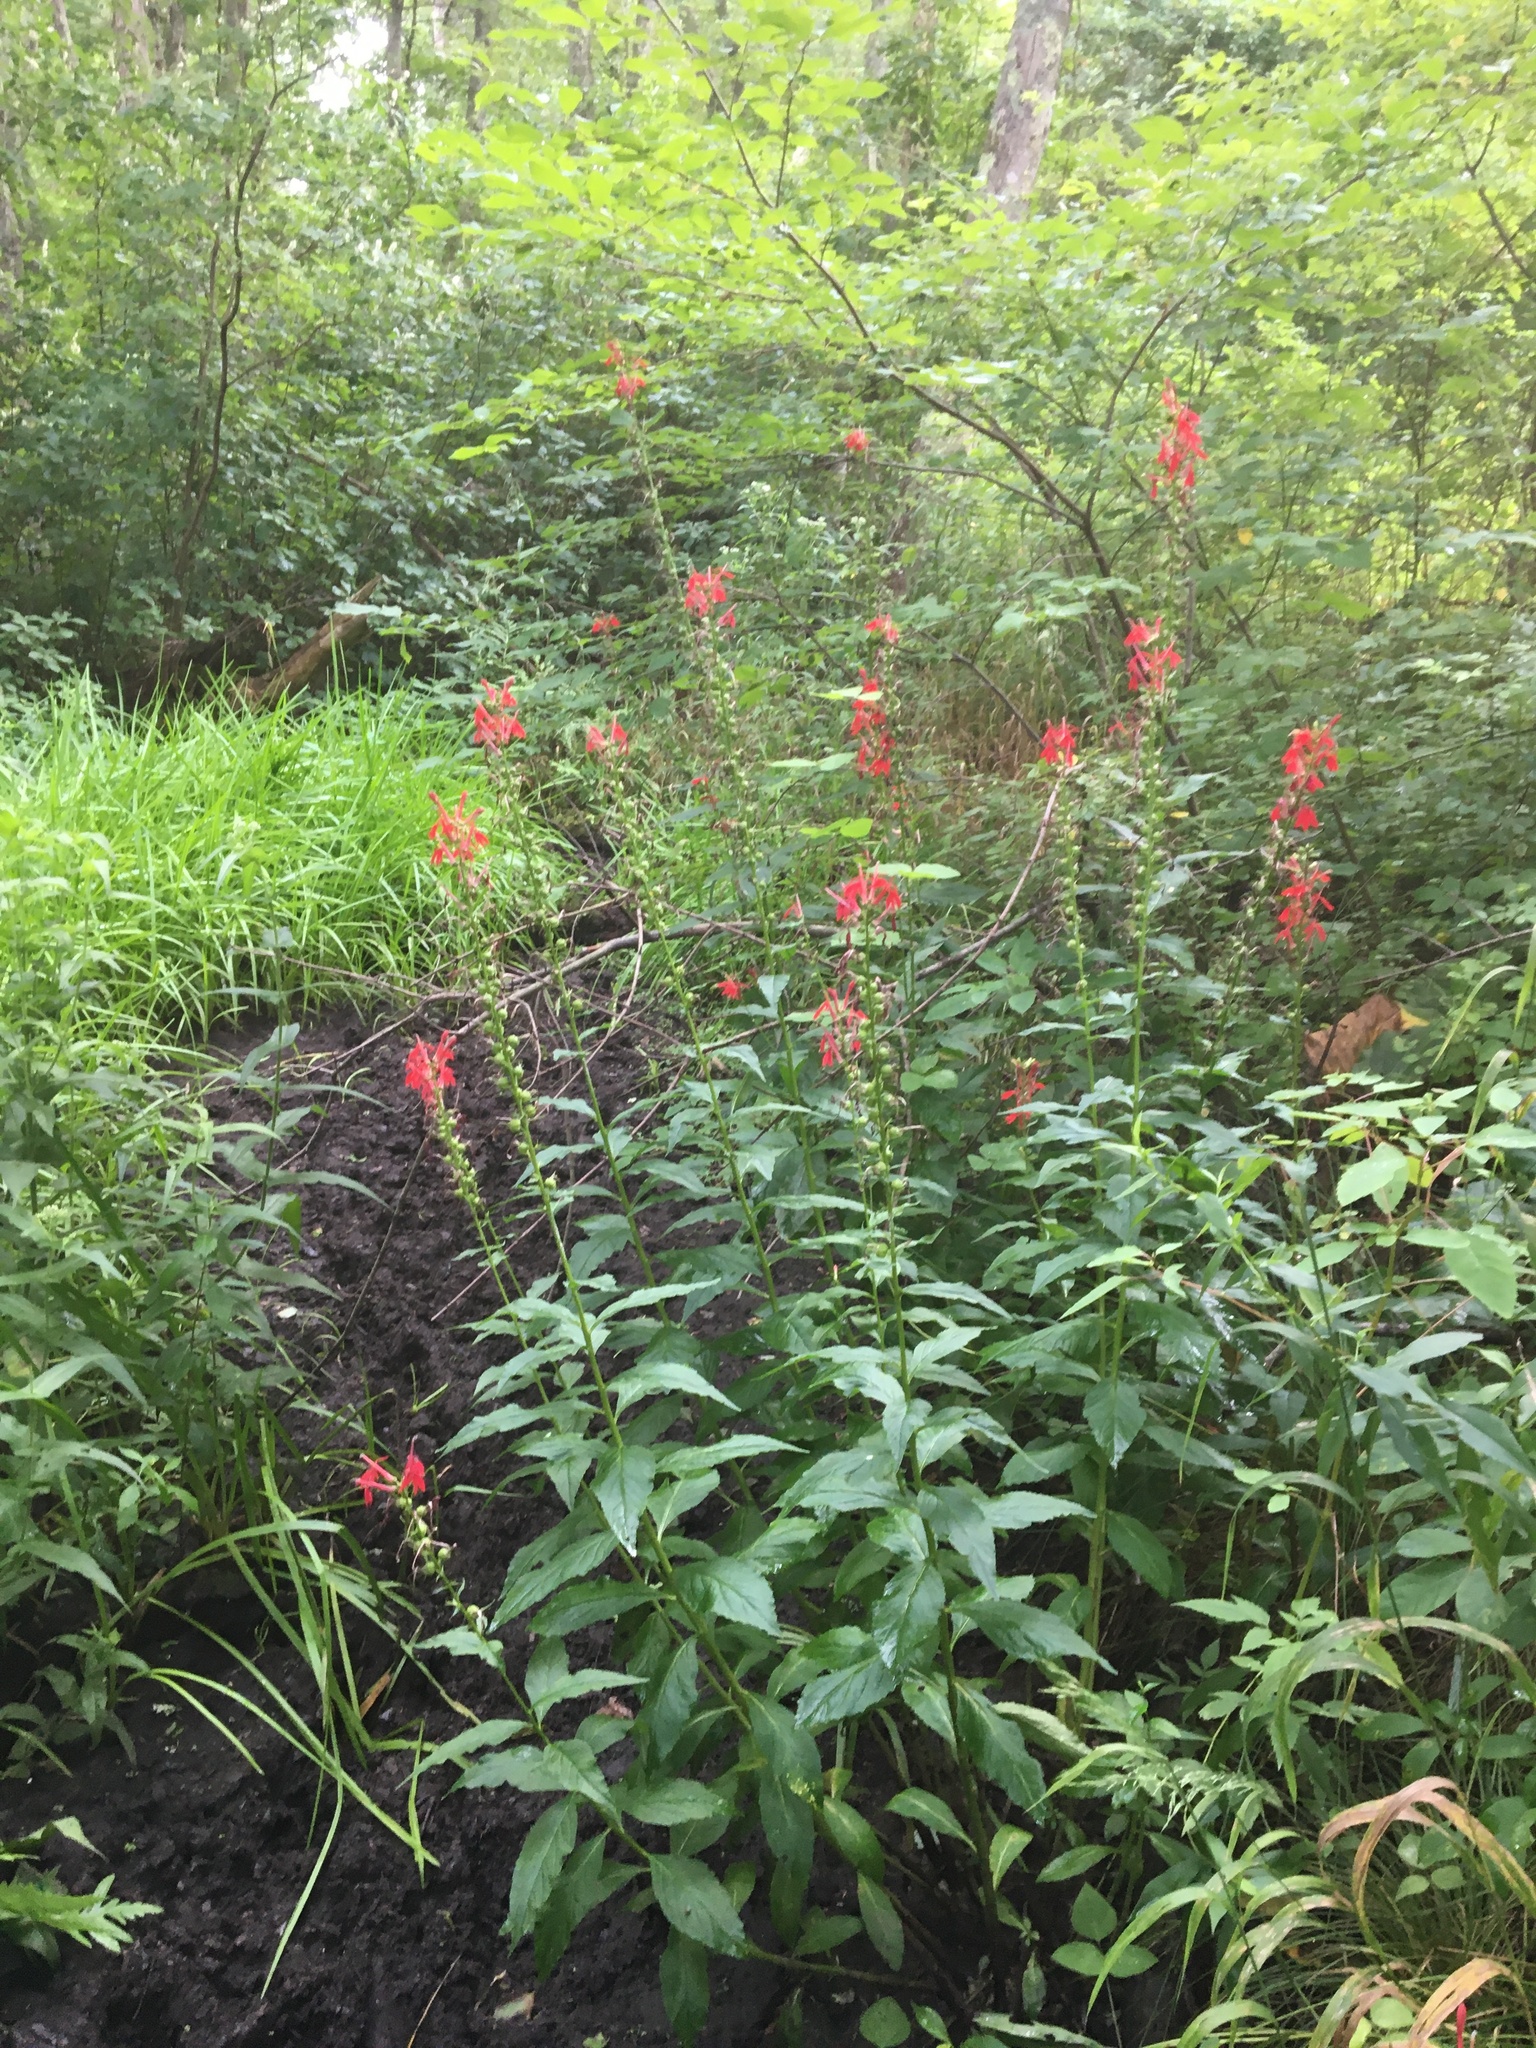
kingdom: Plantae
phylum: Tracheophyta
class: Magnoliopsida
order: Asterales
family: Campanulaceae
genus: Lobelia
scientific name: Lobelia cardinalis
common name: Cardinal flower
